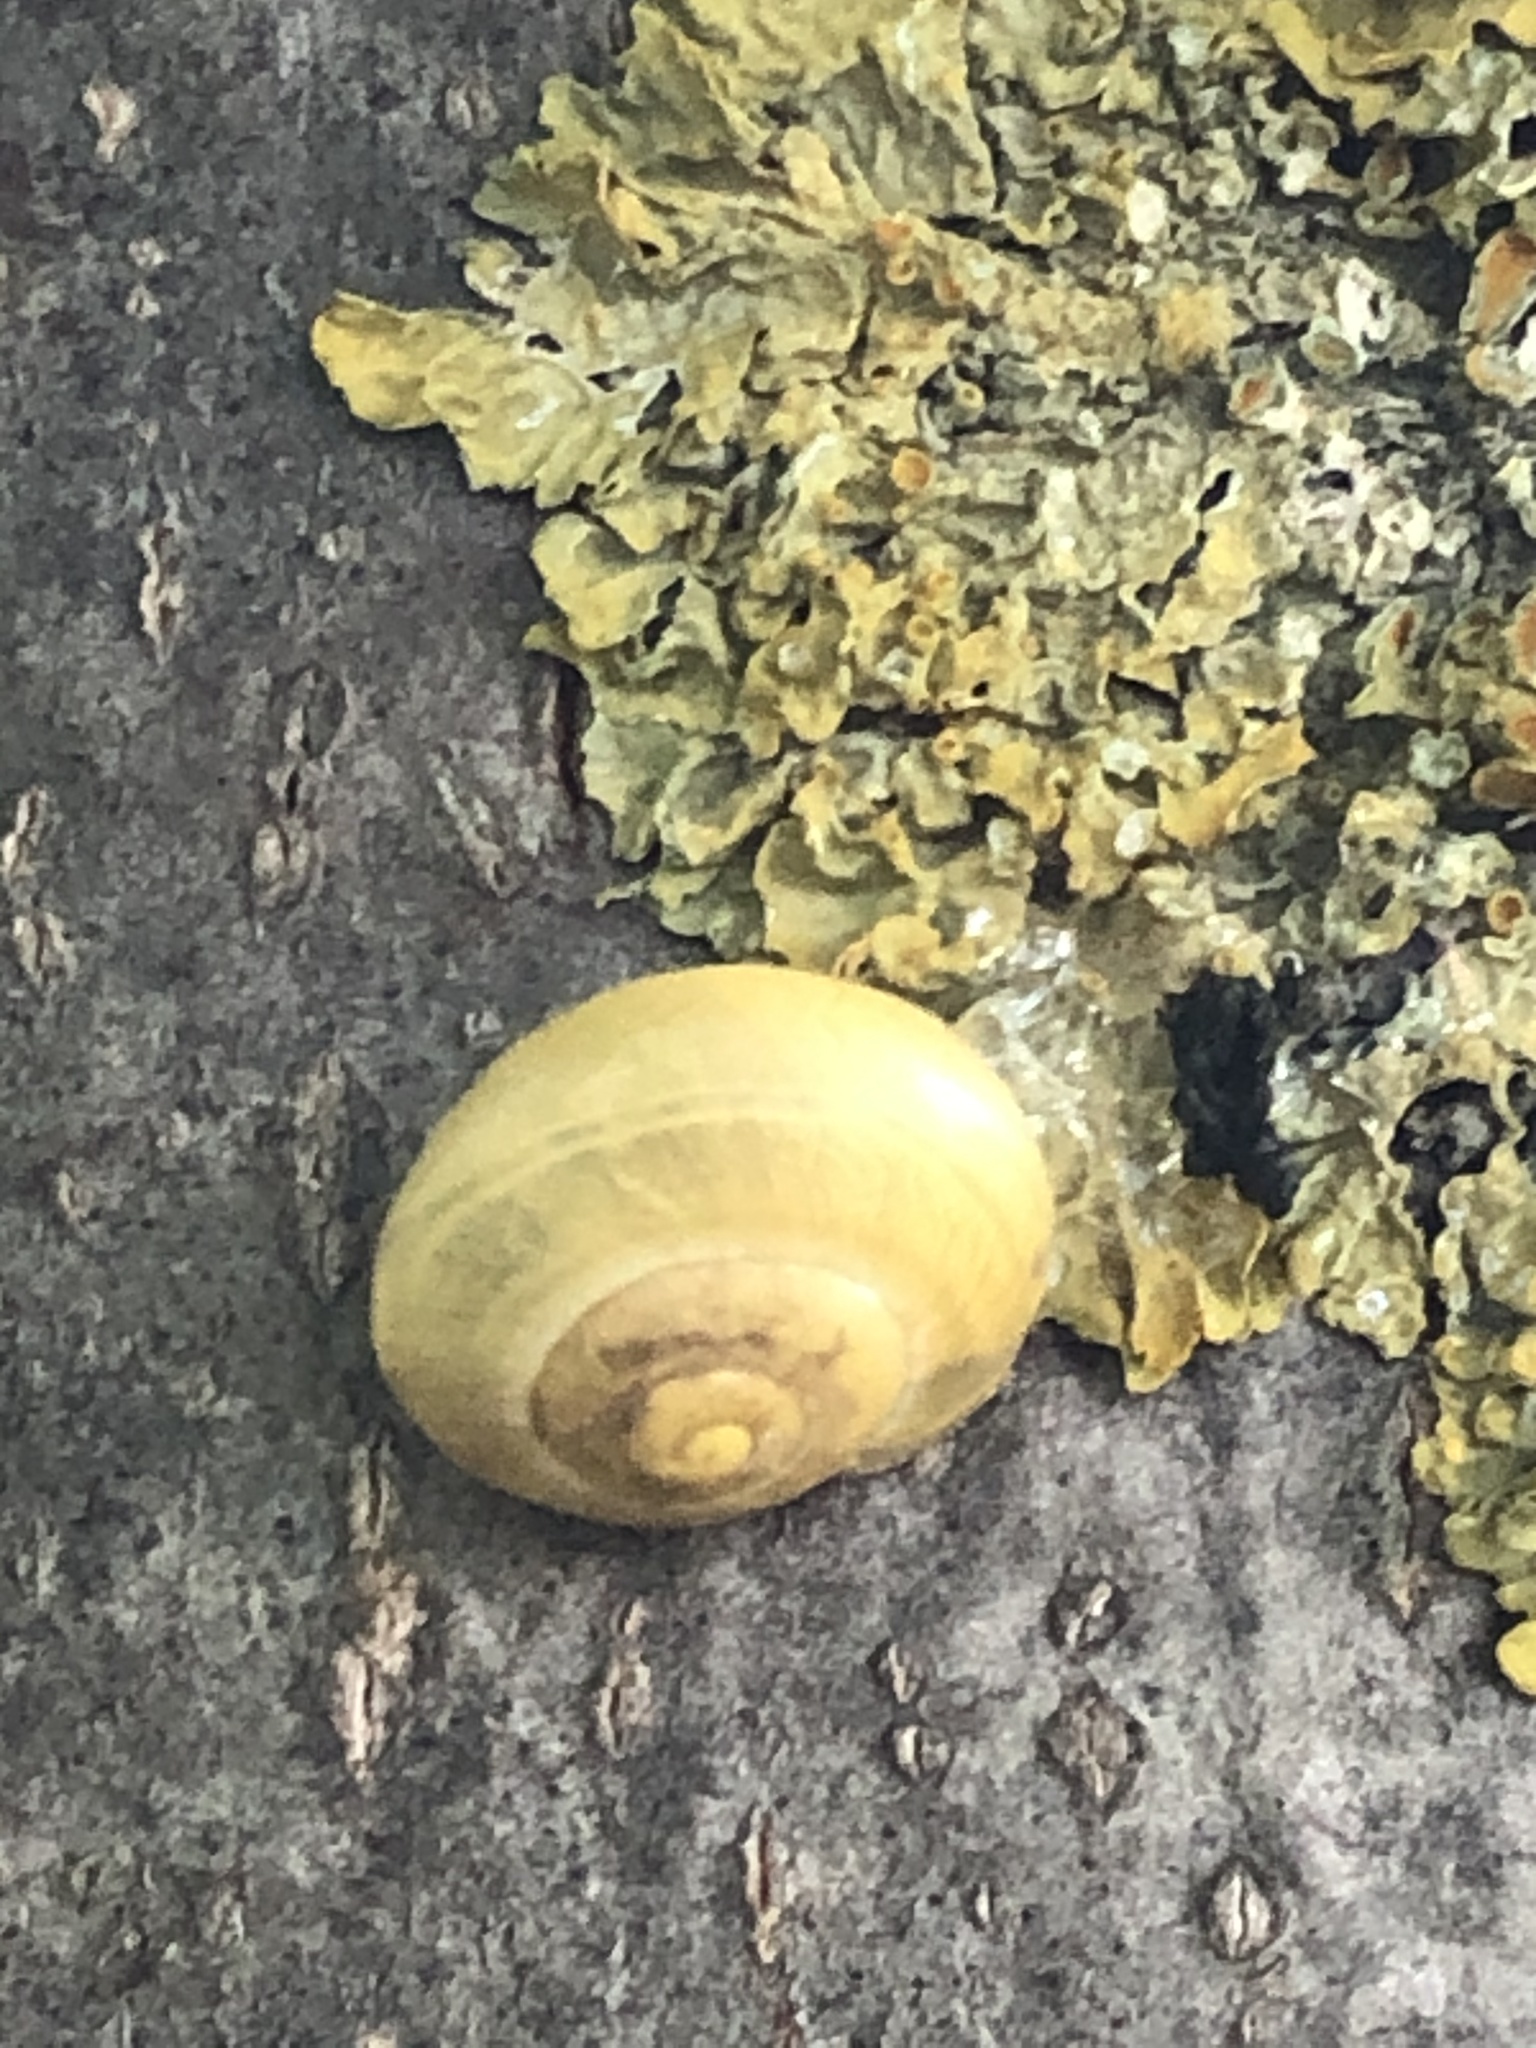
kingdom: Animalia
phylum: Mollusca
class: Gastropoda
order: Stylommatophora
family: Helicidae
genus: Cepaea
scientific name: Cepaea
